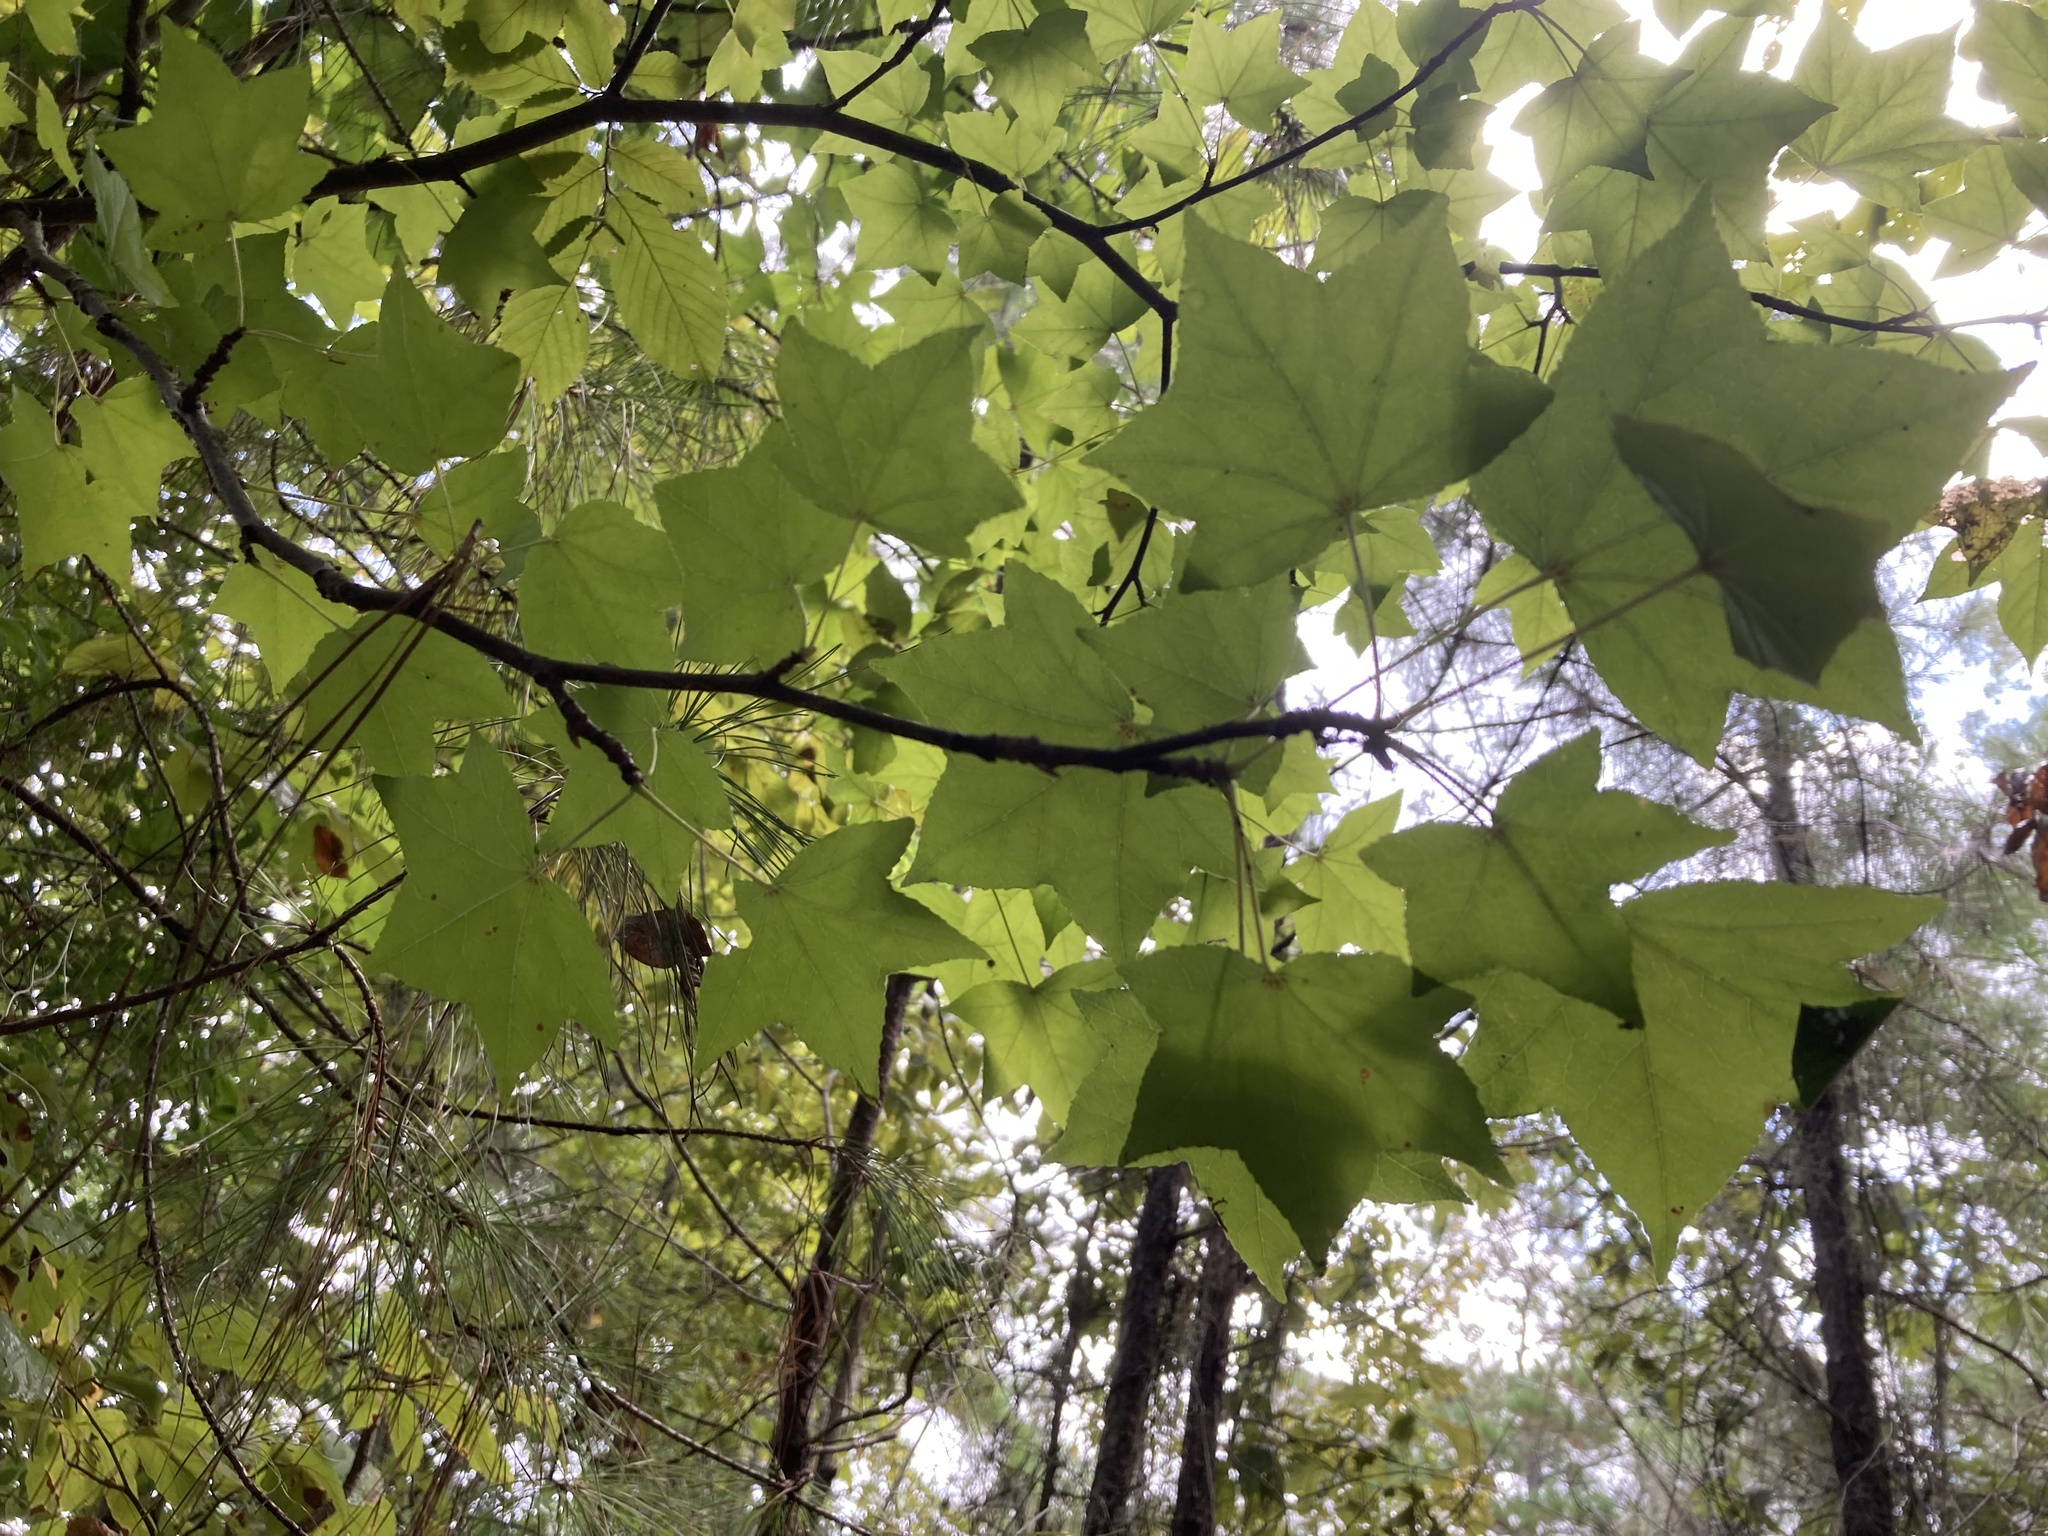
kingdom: Plantae
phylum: Tracheophyta
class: Magnoliopsida
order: Saxifragales
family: Altingiaceae
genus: Liquidambar
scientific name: Liquidambar styraciflua
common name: Sweet gum
